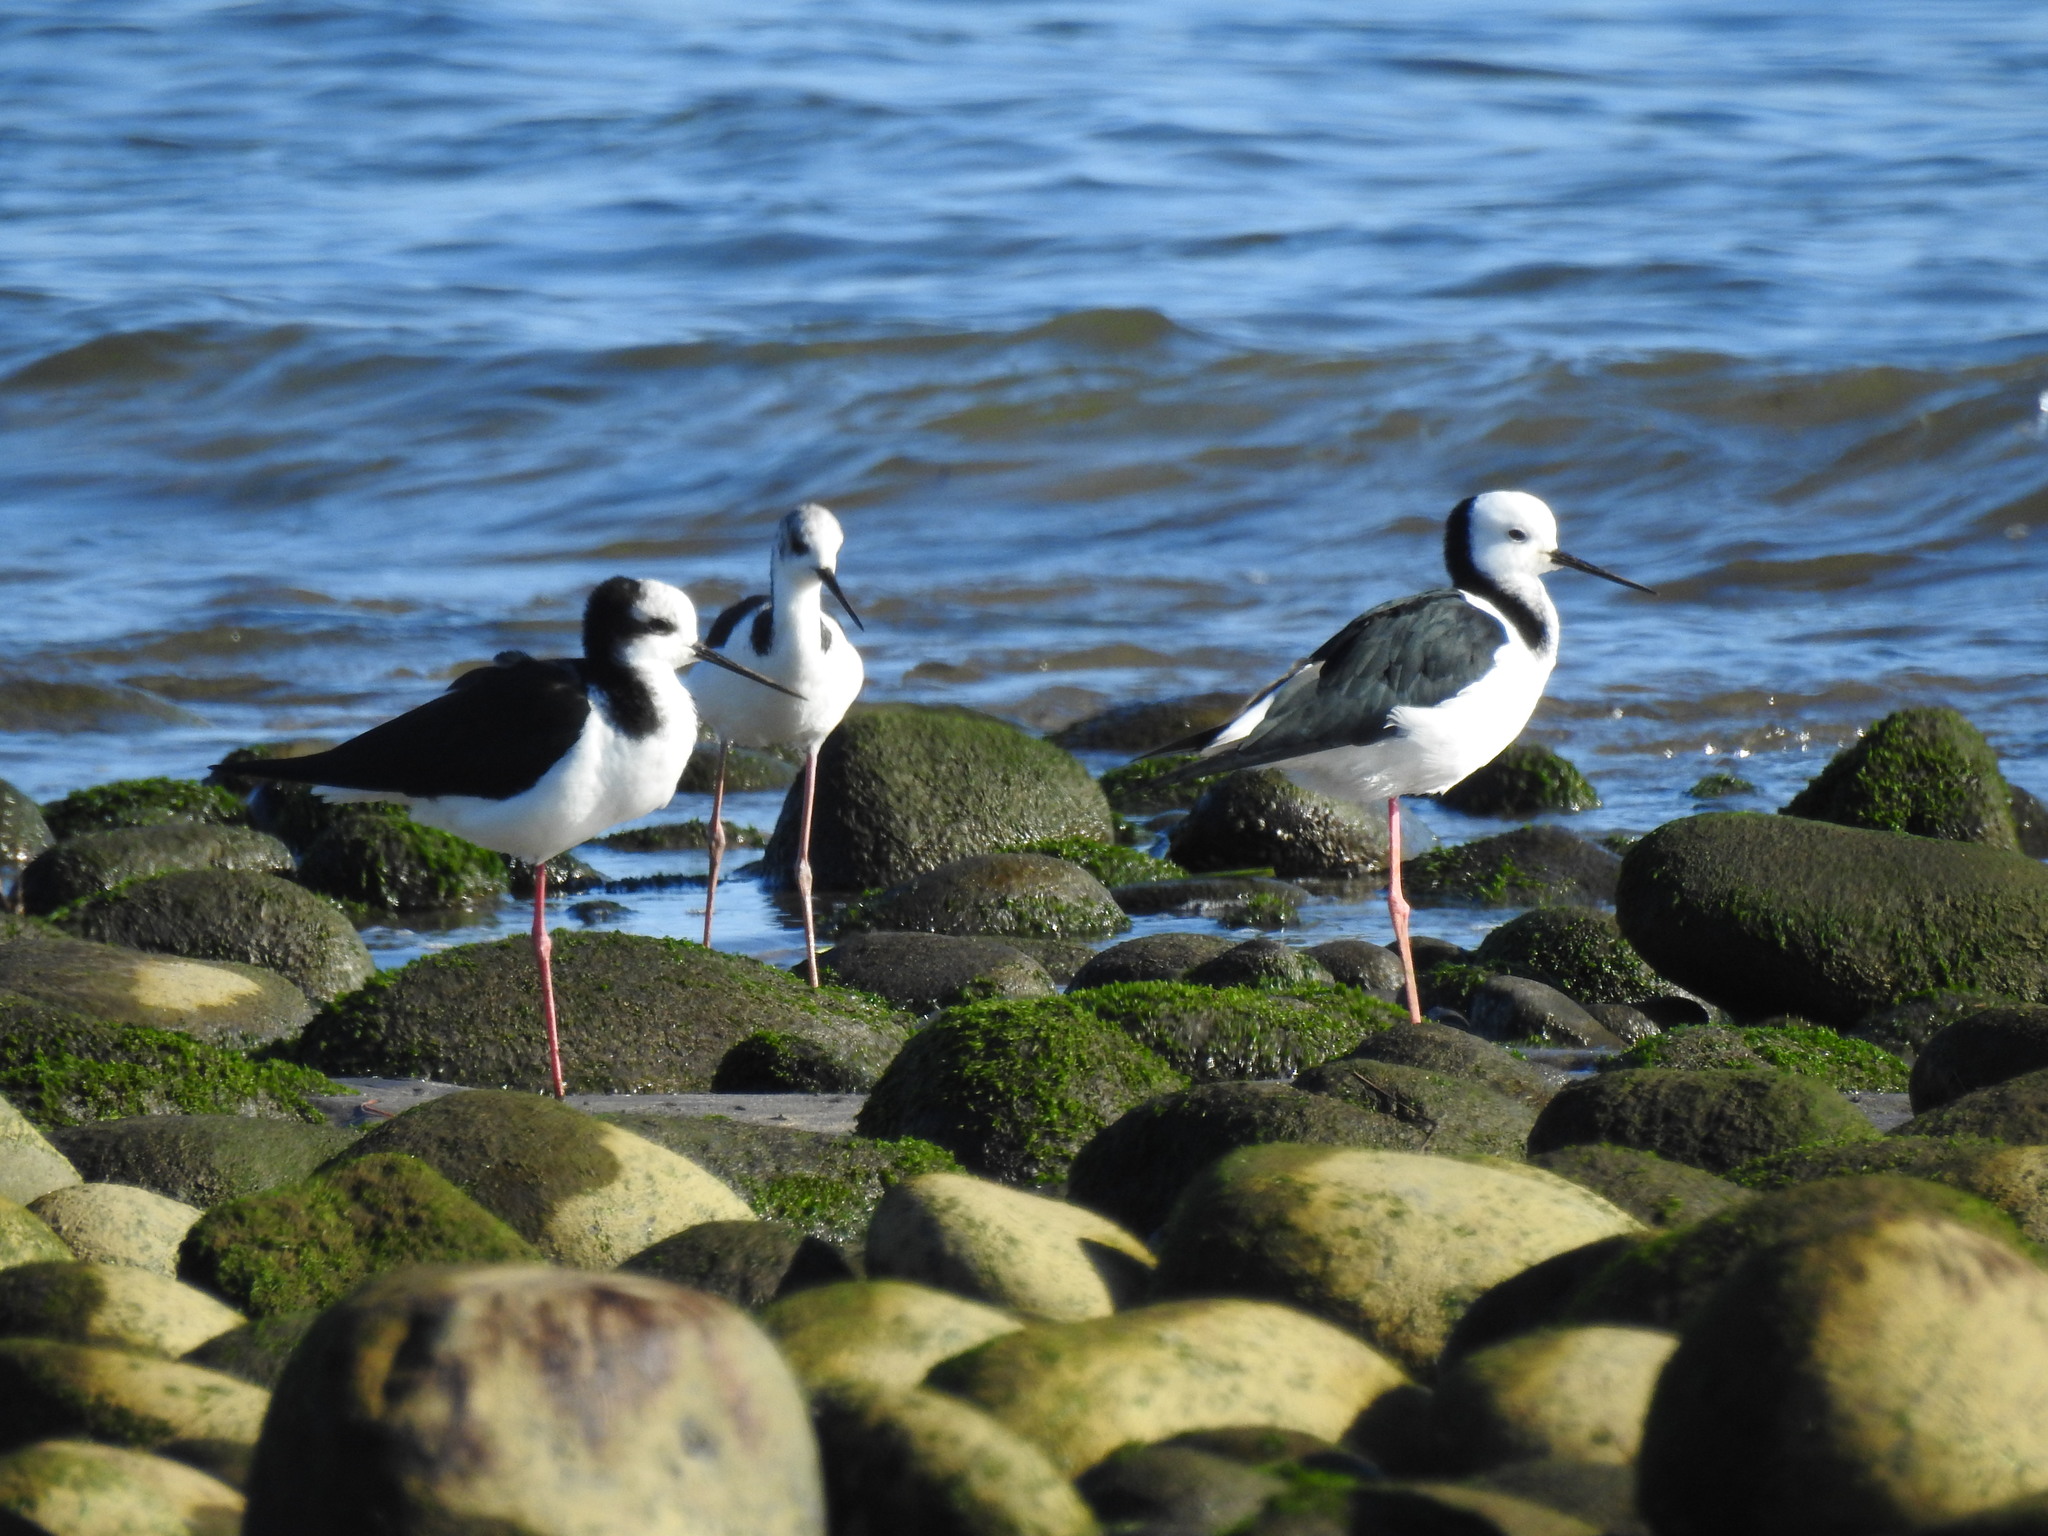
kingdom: Animalia
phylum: Chordata
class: Aves
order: Charadriiformes
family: Recurvirostridae
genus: Himantopus
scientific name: Himantopus leucocephalus
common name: White-headed stilt
